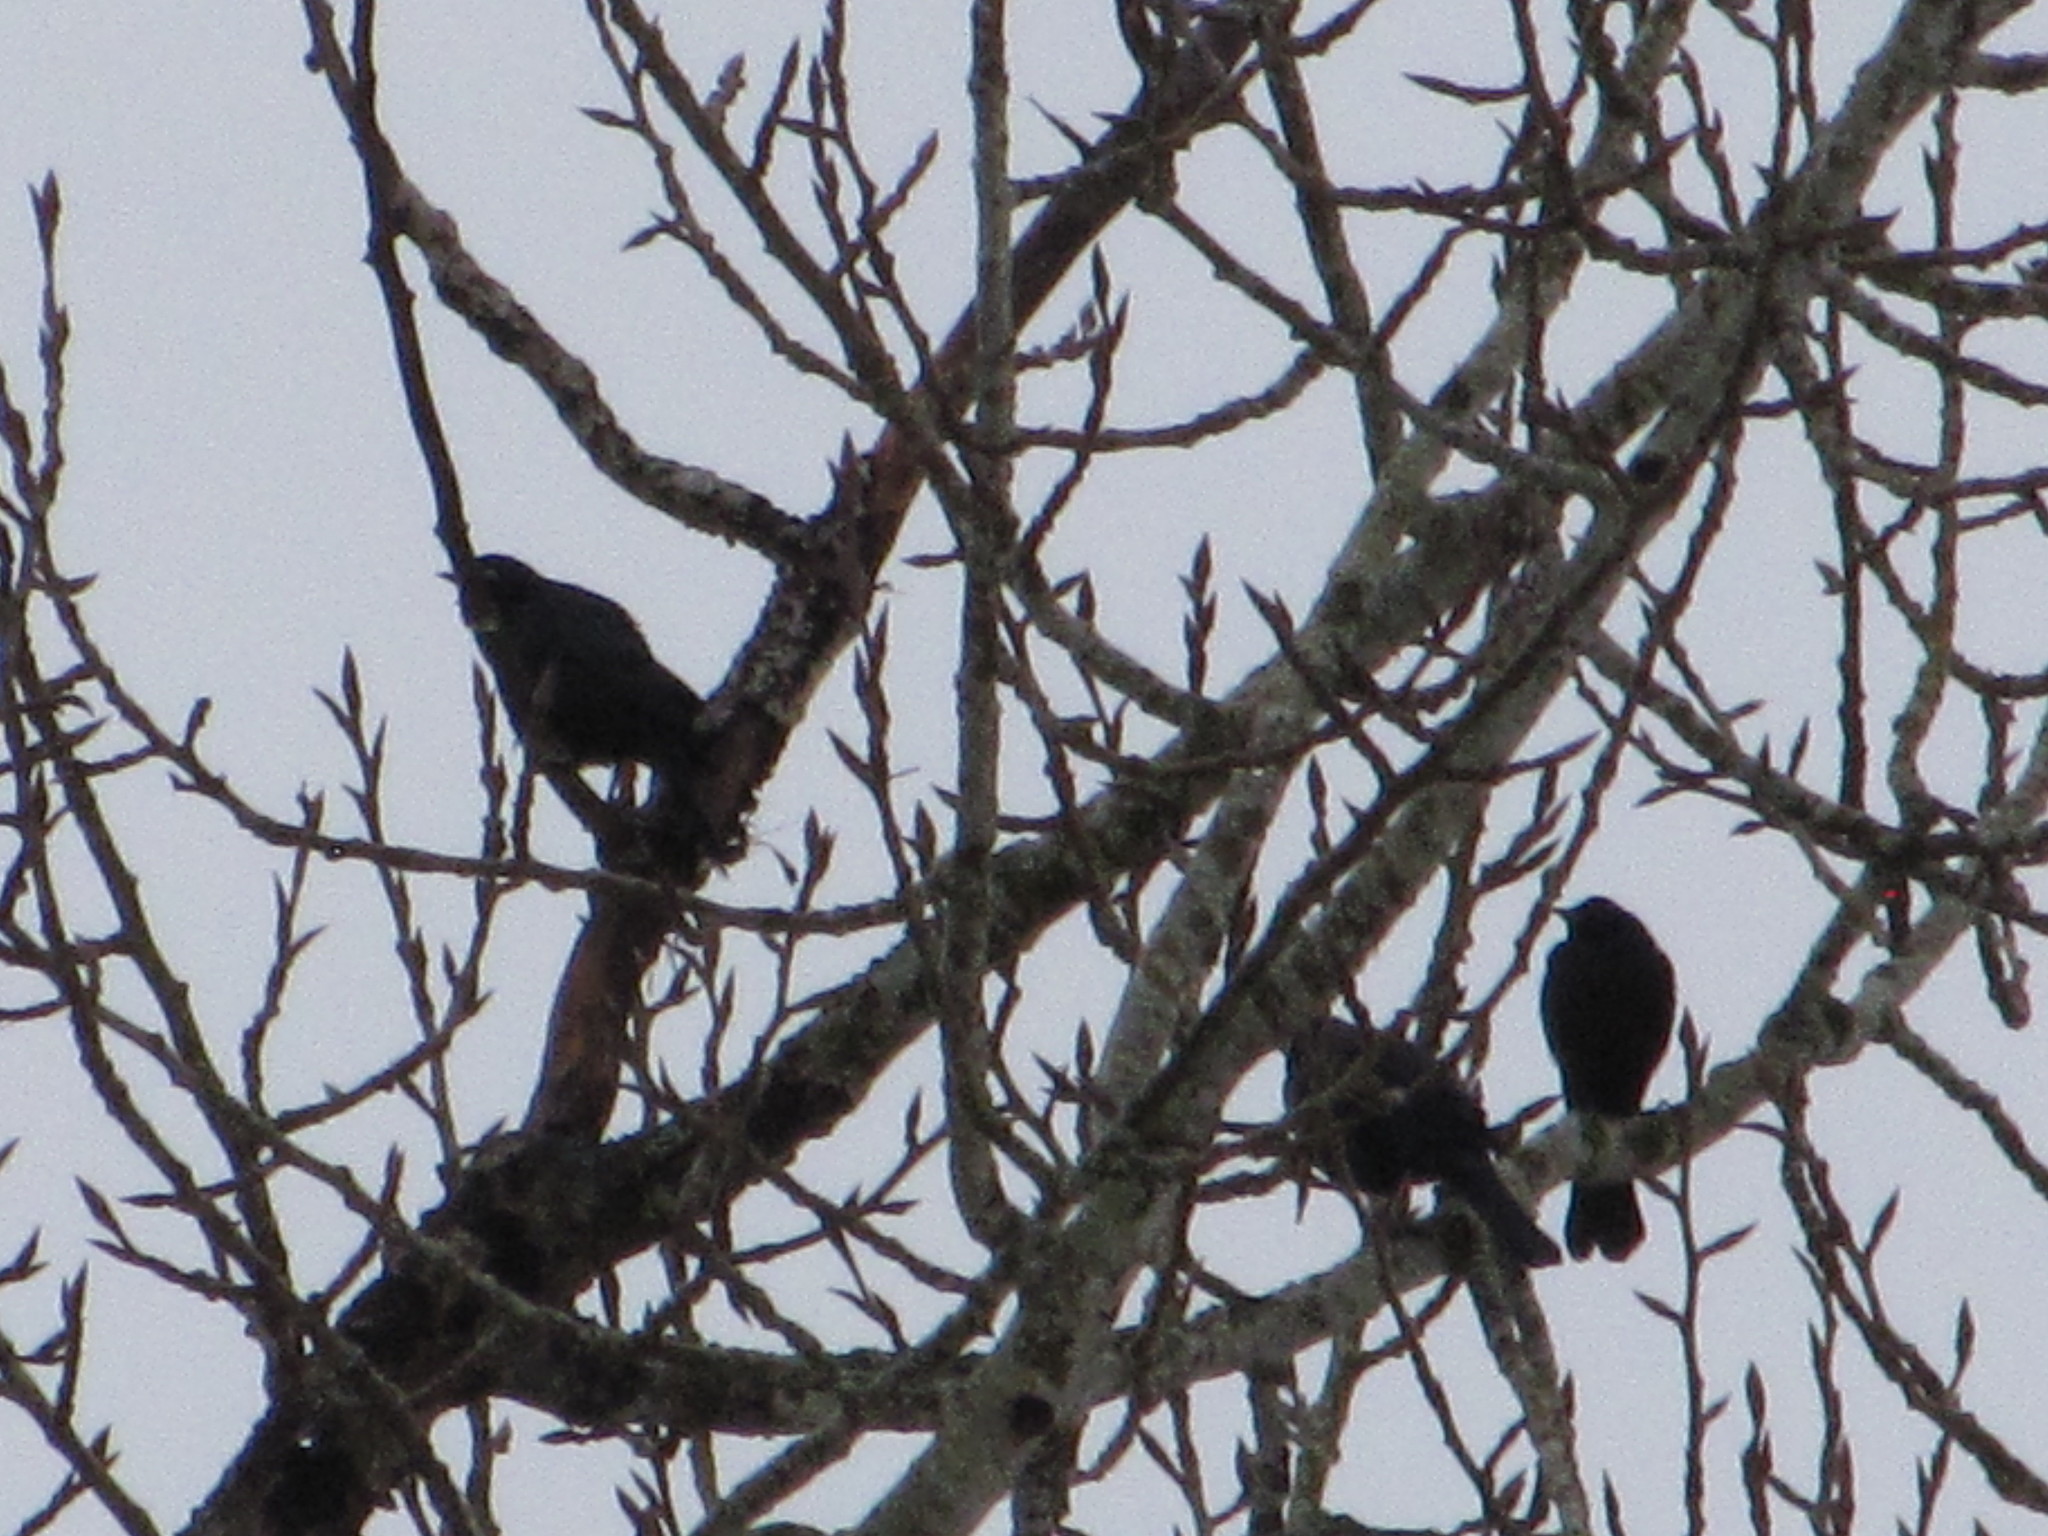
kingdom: Animalia
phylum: Chordata
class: Aves
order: Passeriformes
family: Icteridae
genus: Euphagus
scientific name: Euphagus cyanocephalus
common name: Brewer's blackbird
